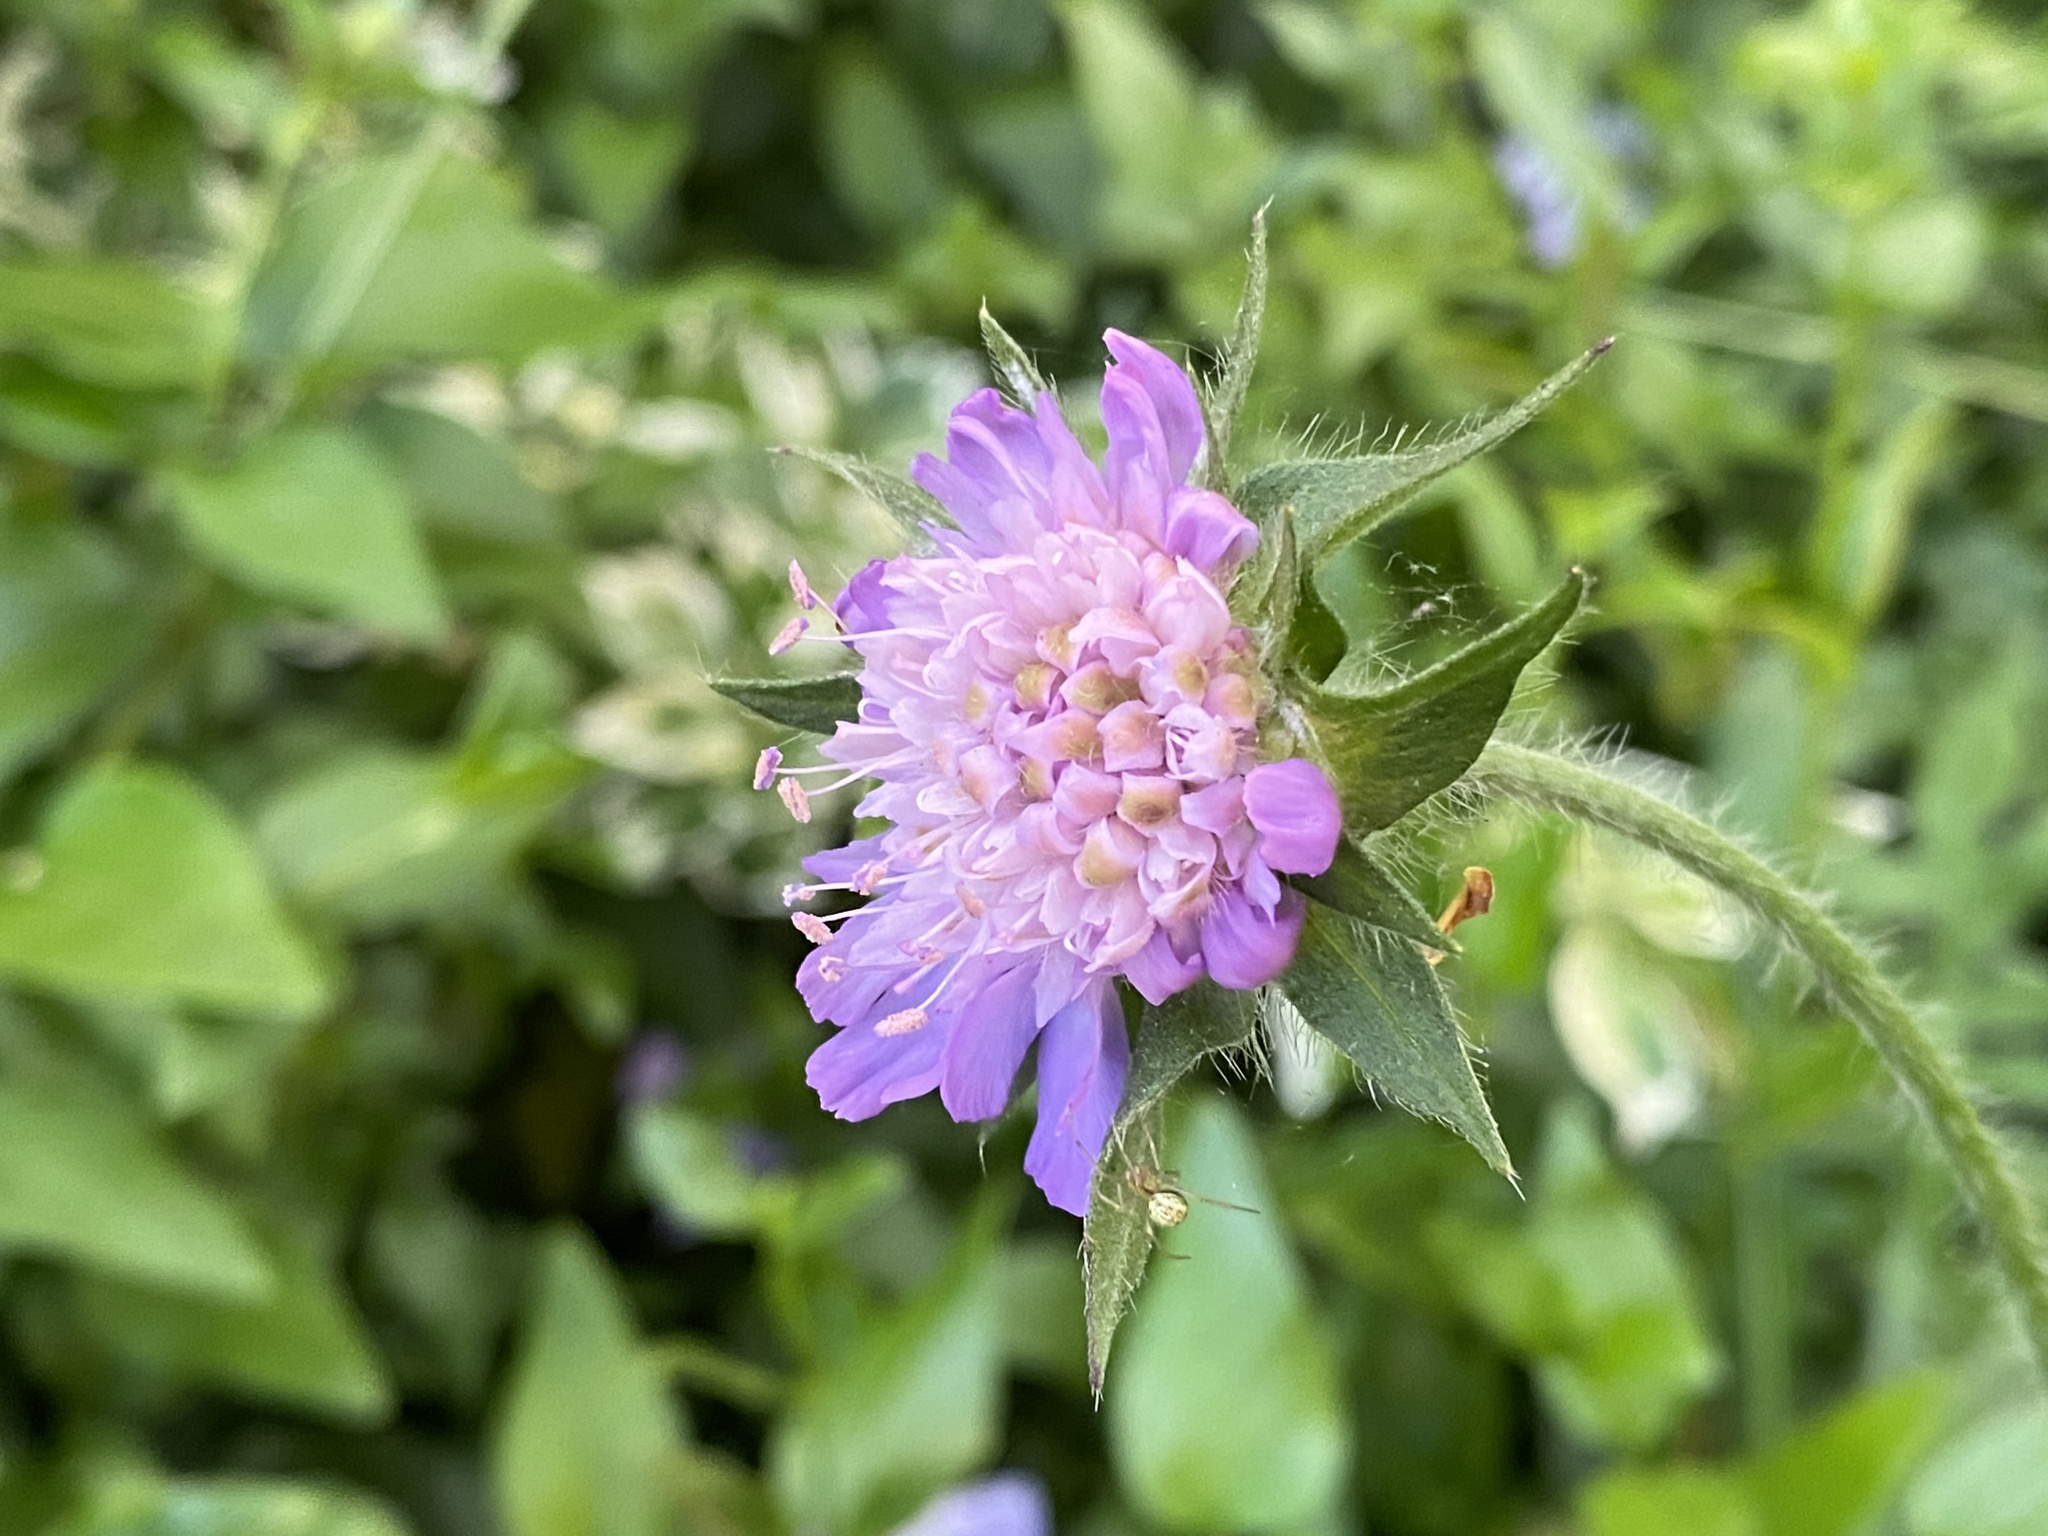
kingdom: Plantae
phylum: Tracheophyta
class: Magnoliopsida
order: Dipsacales
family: Caprifoliaceae
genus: Knautia
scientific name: Knautia arvensis
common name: Field scabiosa
